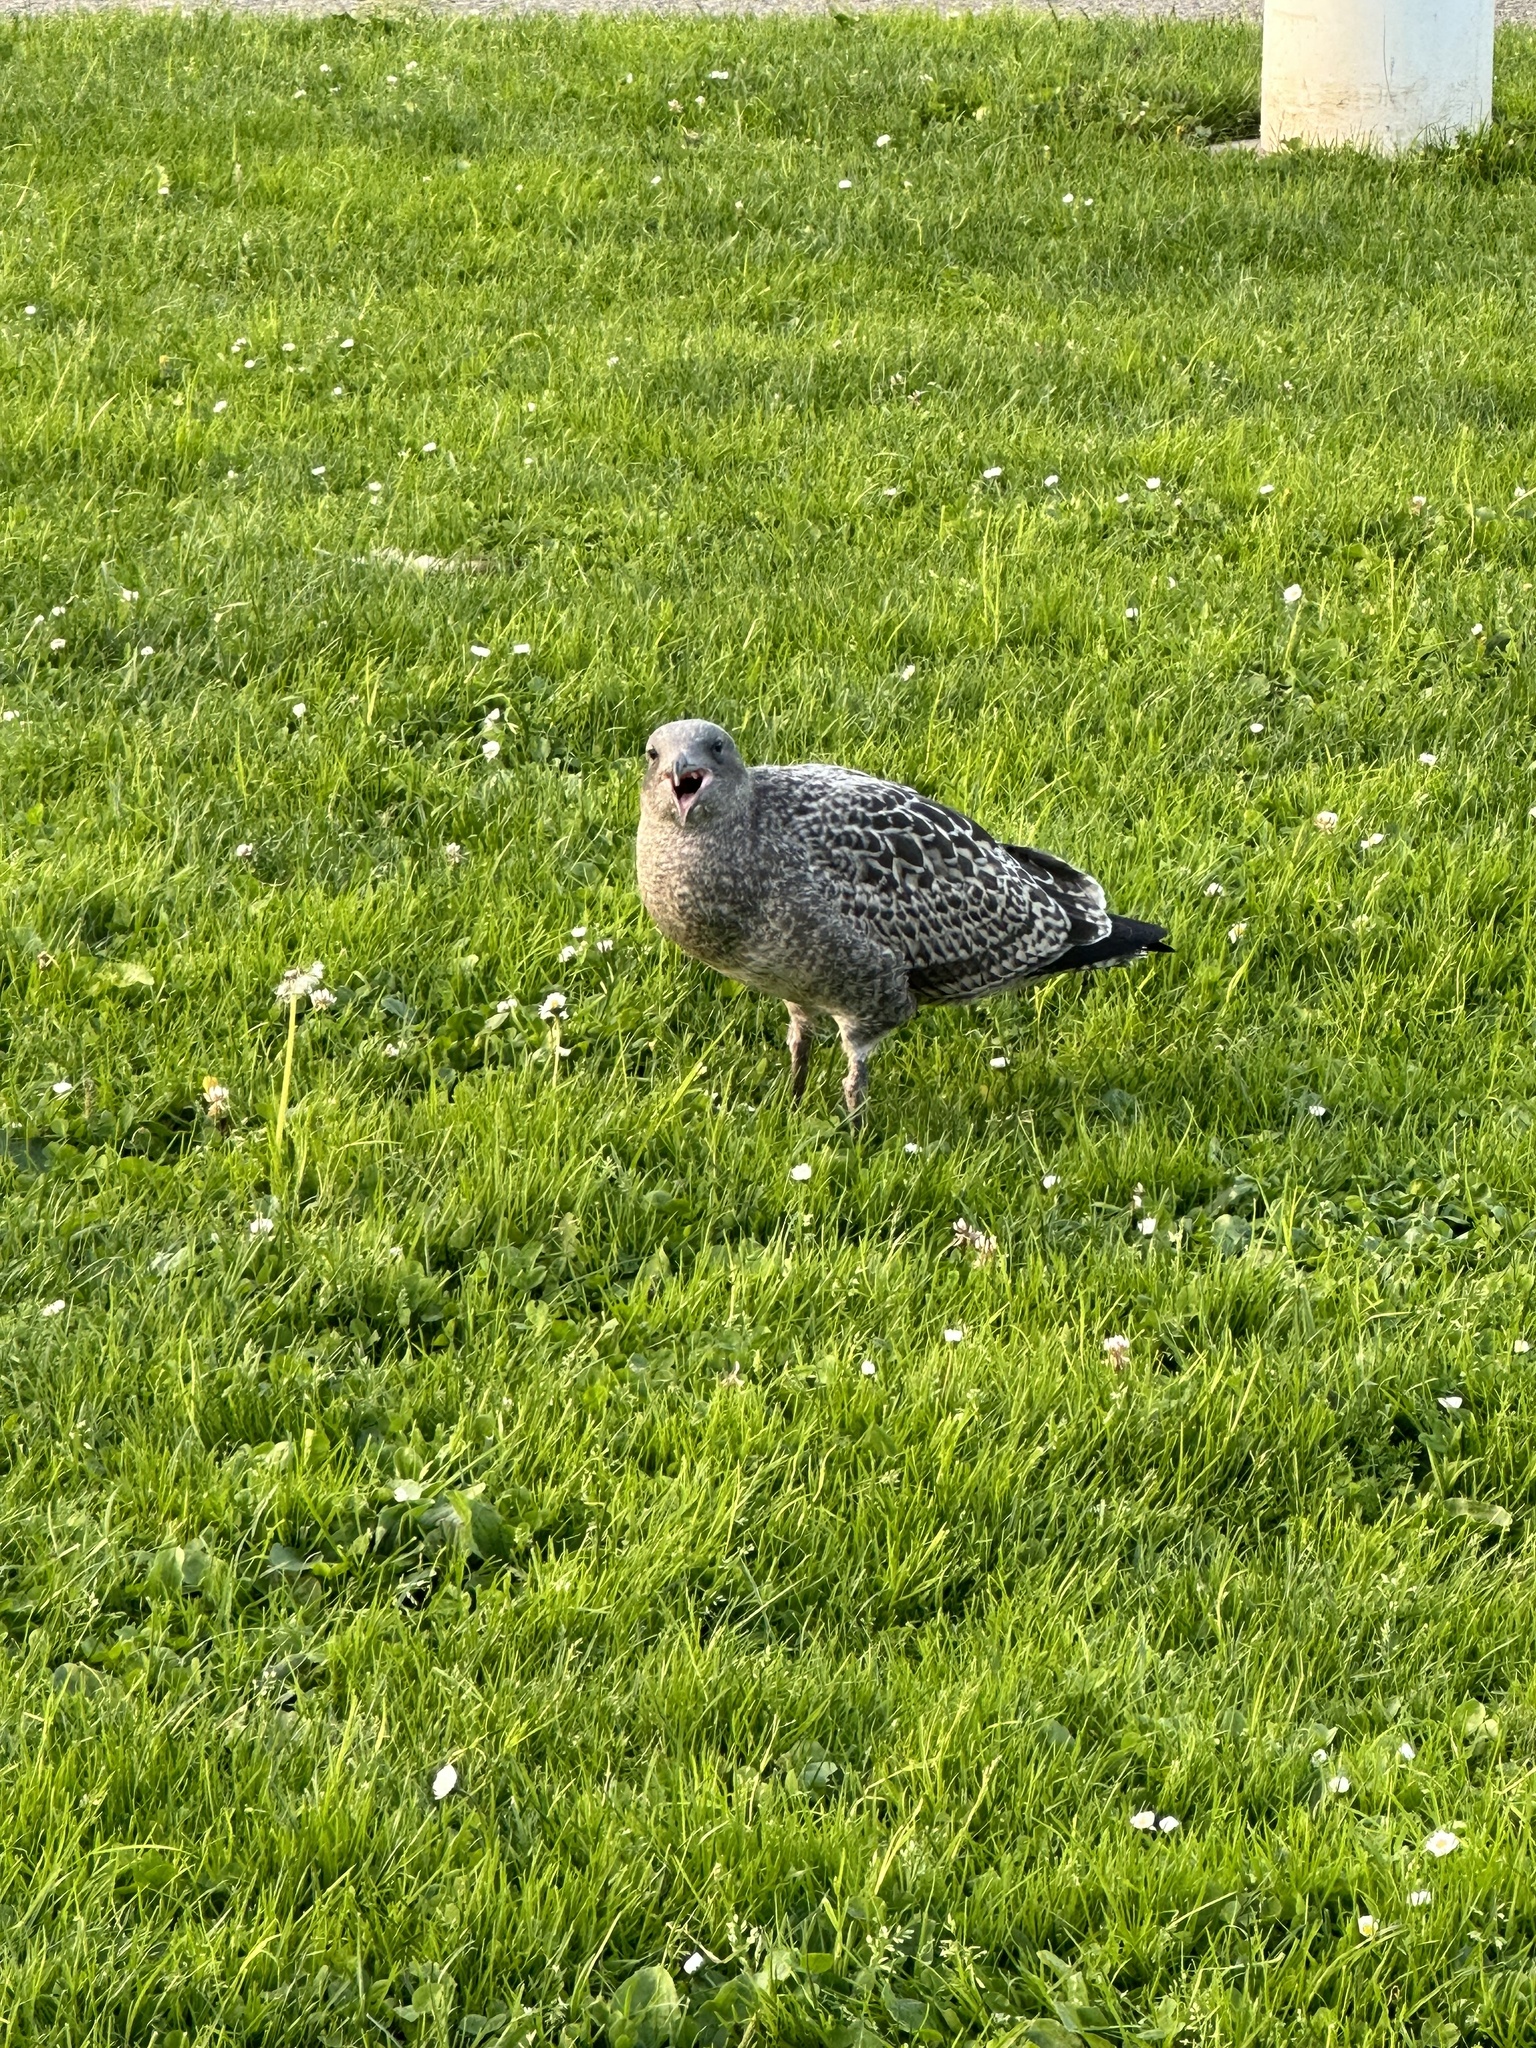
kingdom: Animalia
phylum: Chordata
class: Aves
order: Charadriiformes
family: Laridae
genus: Larus
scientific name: Larus occidentalis
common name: Western gull
